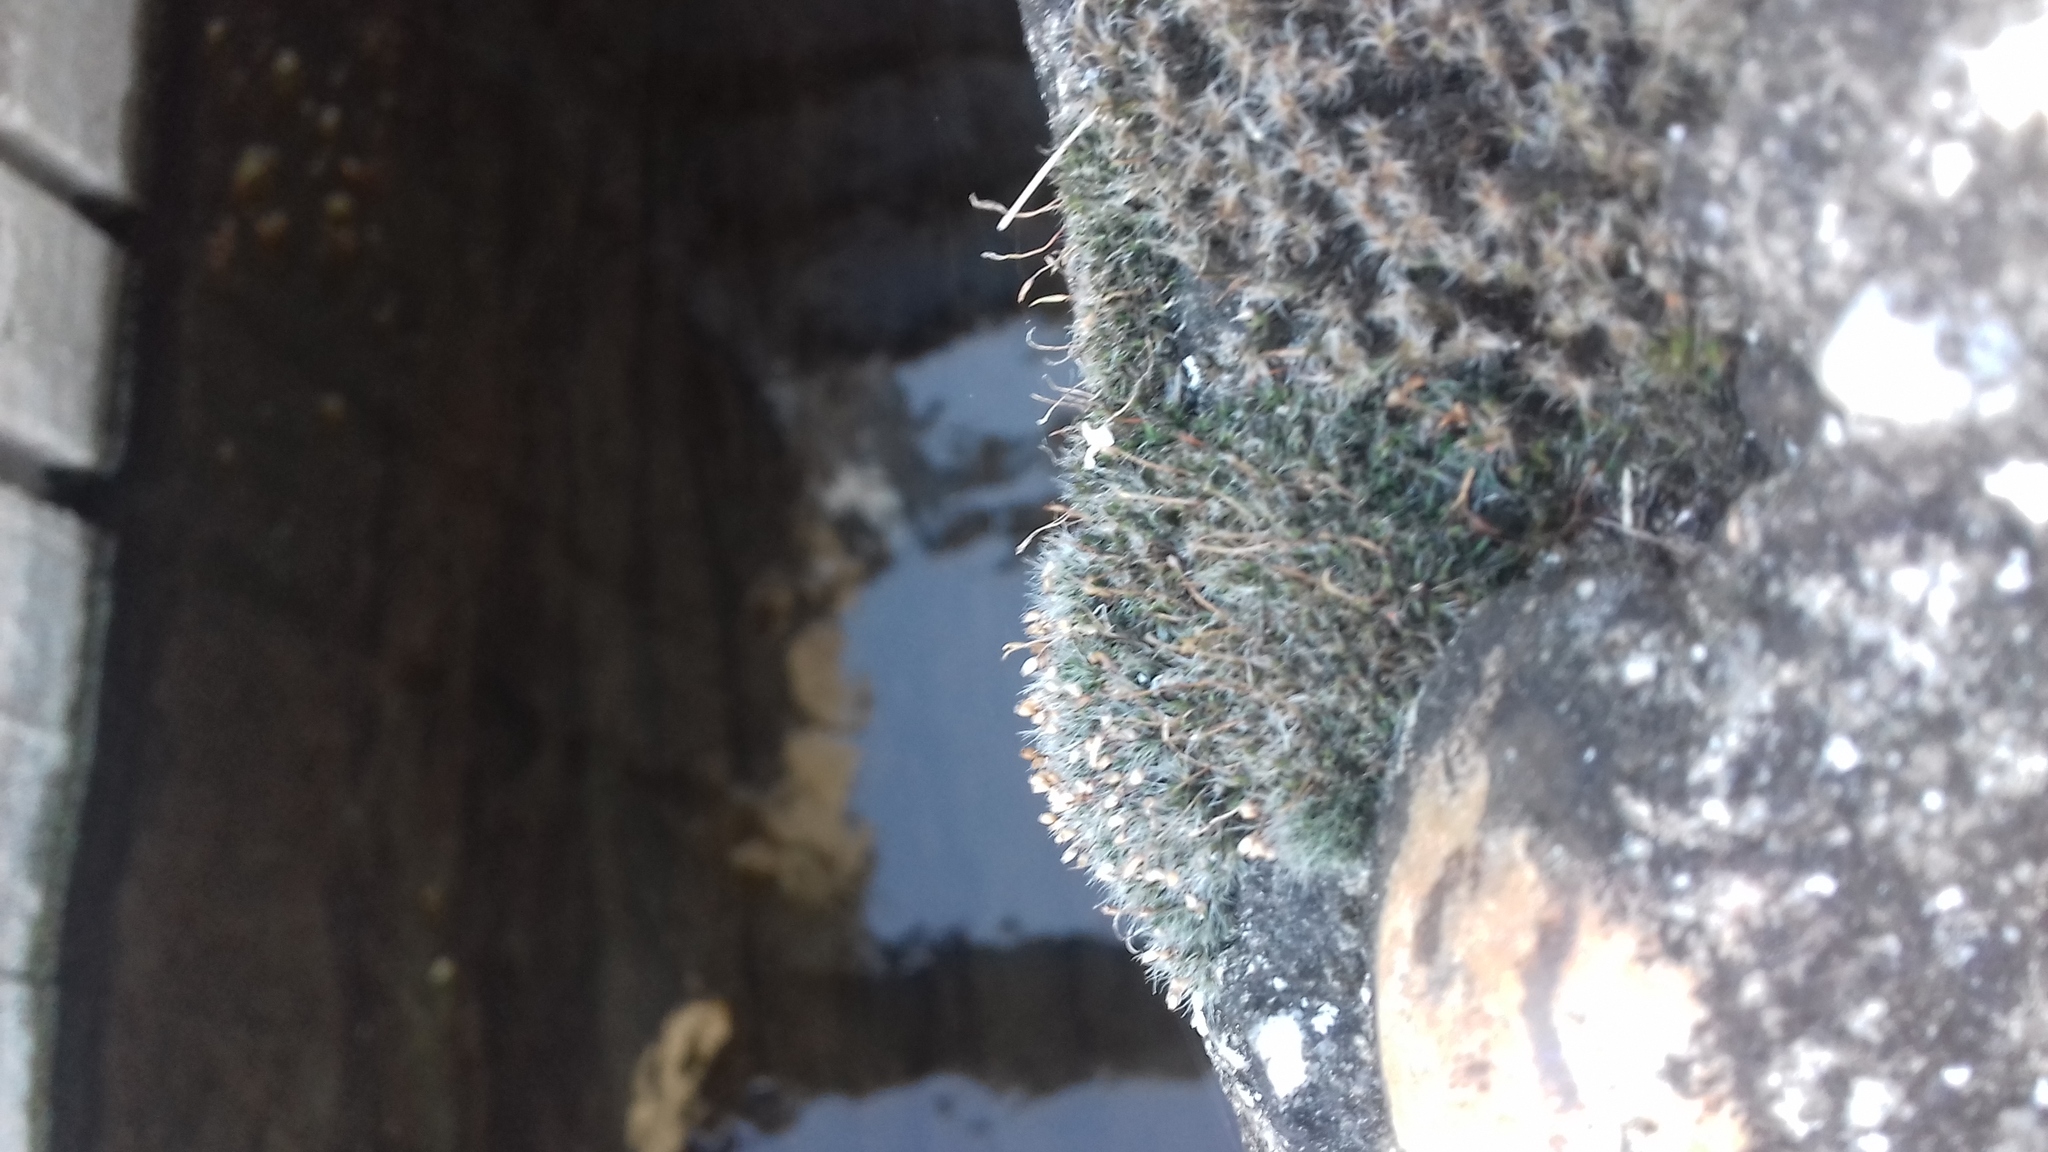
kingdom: Plantae
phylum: Bryophyta
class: Bryopsida
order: Grimmiales
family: Grimmiaceae
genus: Grimmia
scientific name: Grimmia pulvinata
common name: Grey-cushioned grimmia
